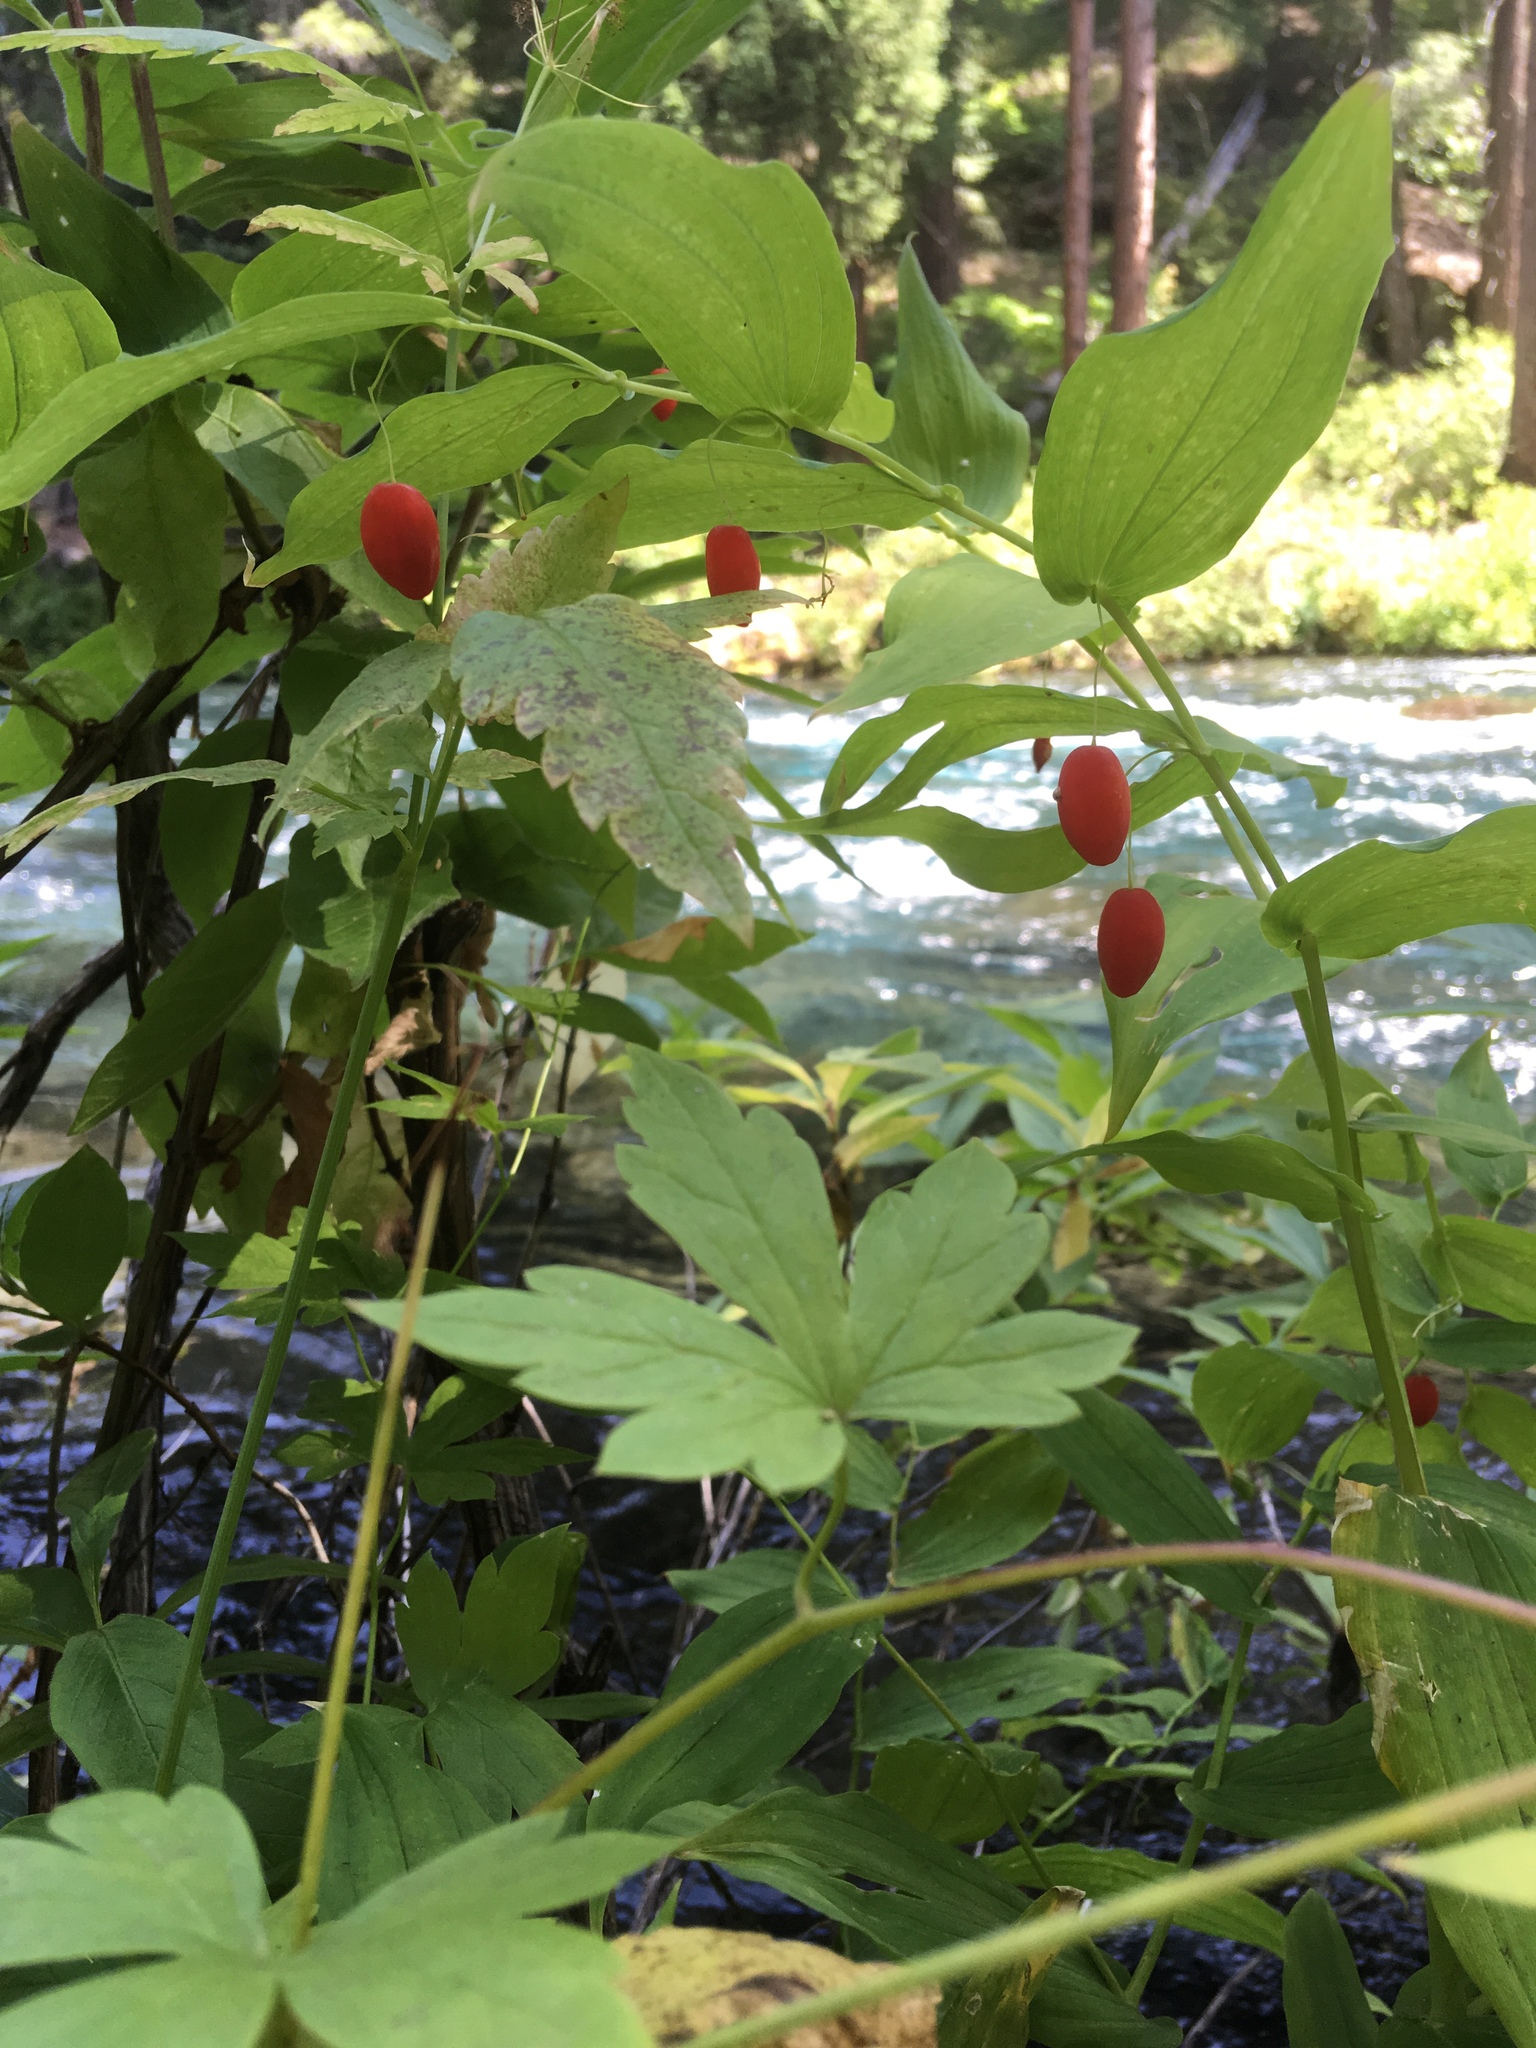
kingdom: Plantae
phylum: Tracheophyta
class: Liliopsida
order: Liliales
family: Liliaceae
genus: Streptopus
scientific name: Streptopus amplexifolius
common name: Clasp twisted stalk
